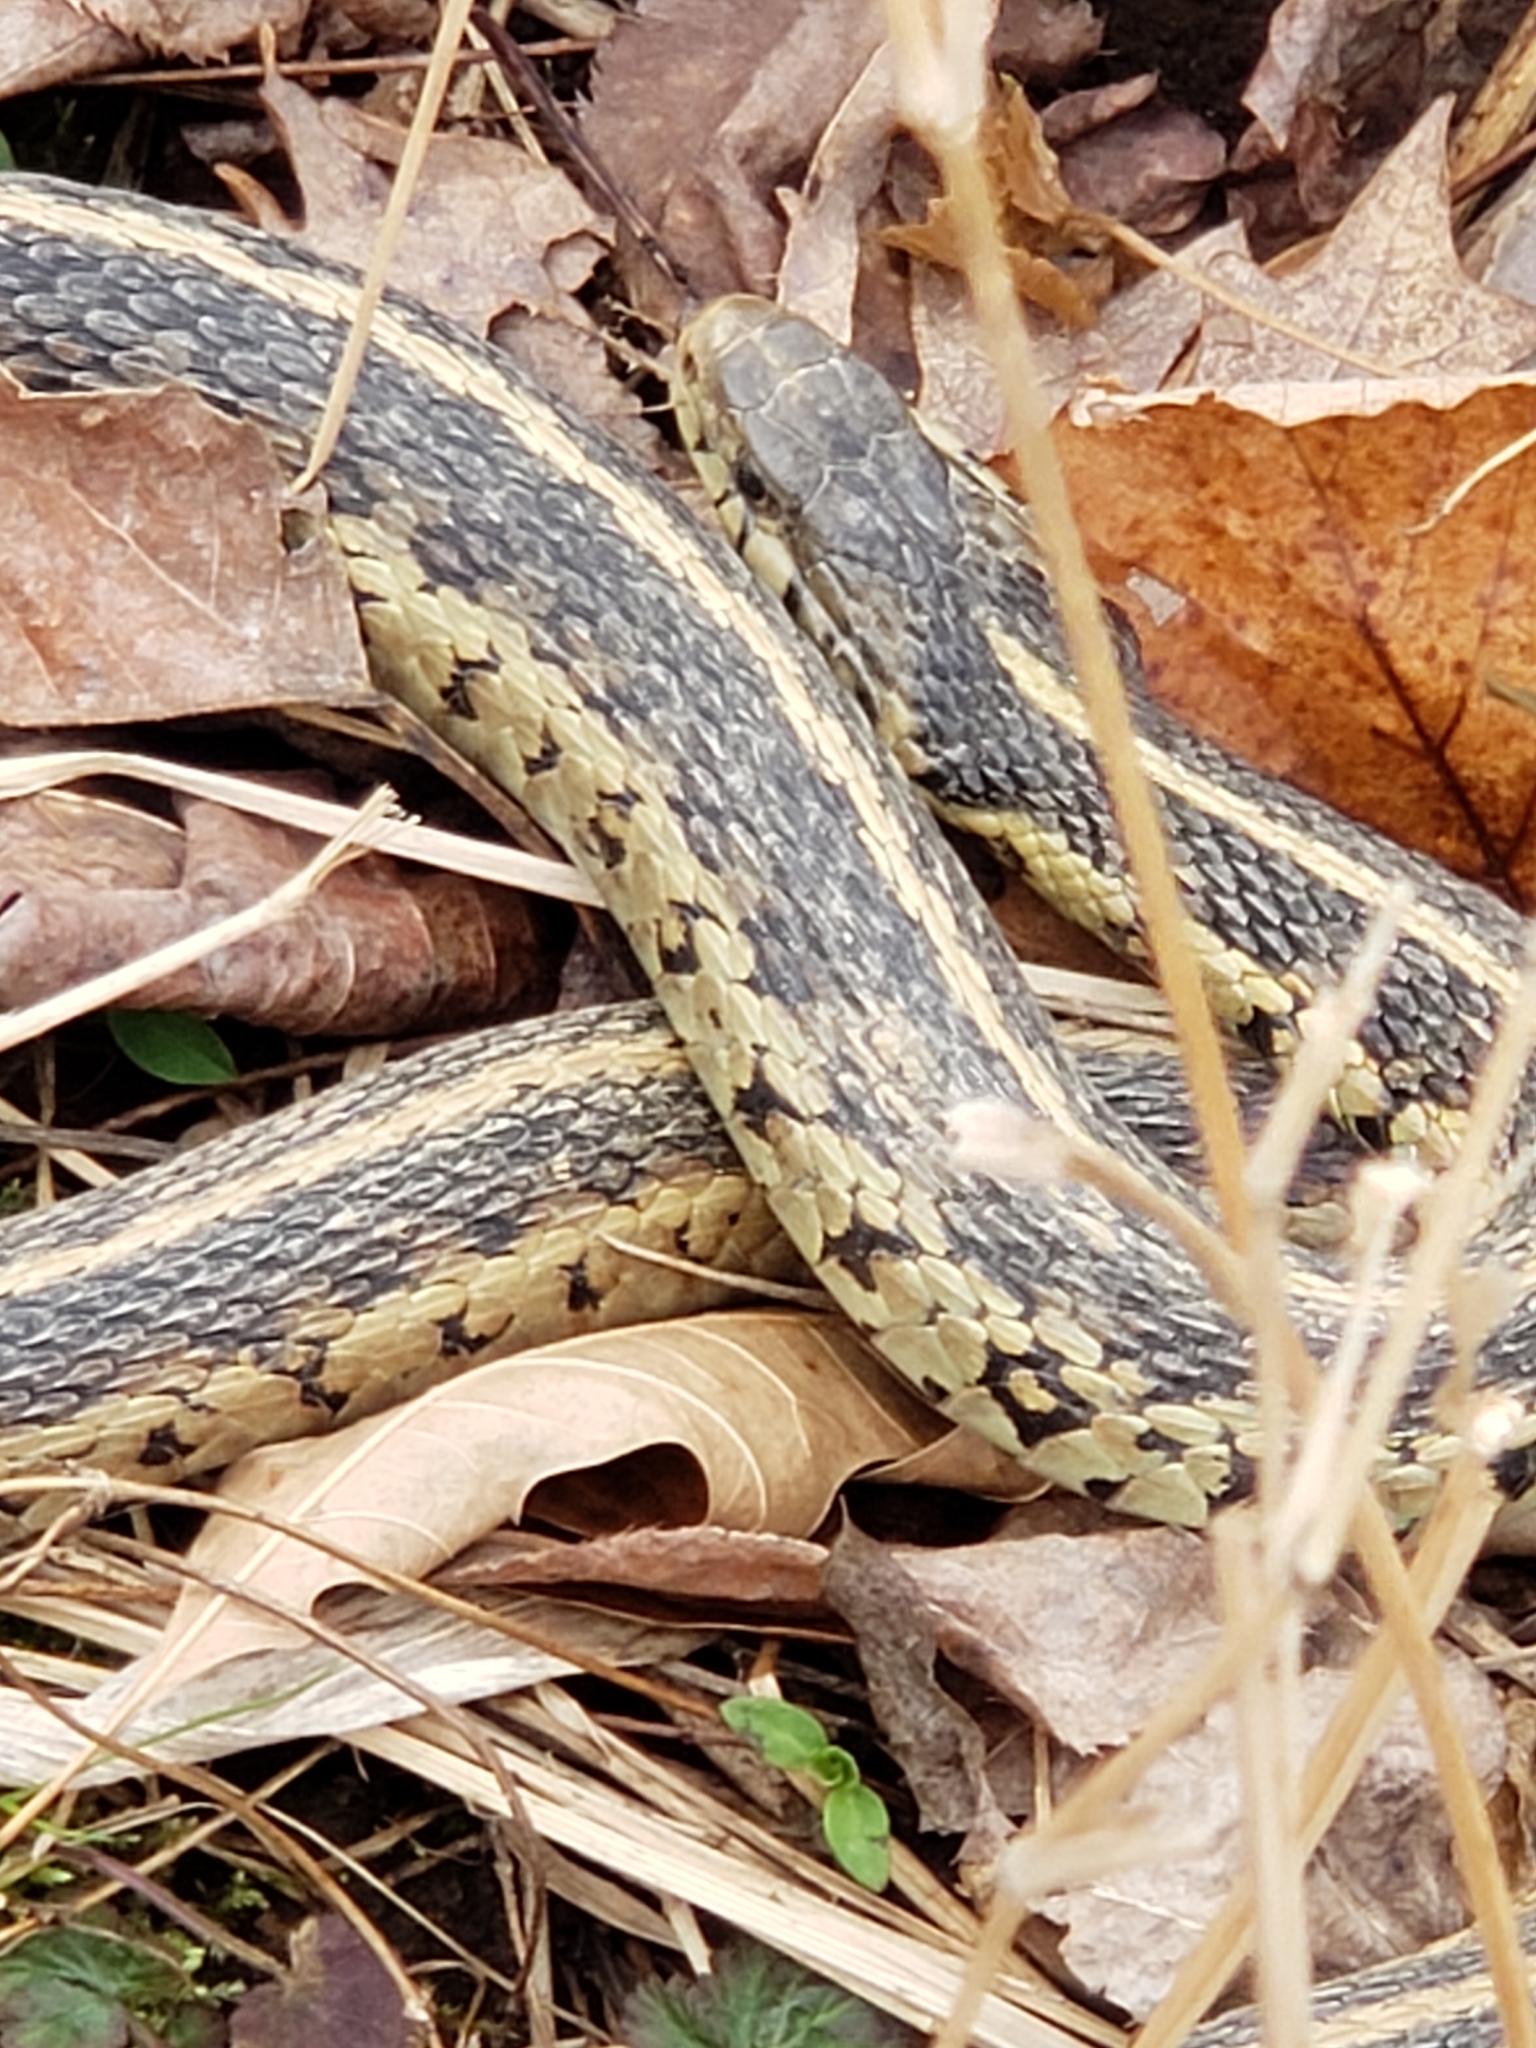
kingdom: Animalia
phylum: Chordata
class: Squamata
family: Colubridae
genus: Thamnophis
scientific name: Thamnophis sirtalis
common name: Common garter snake
